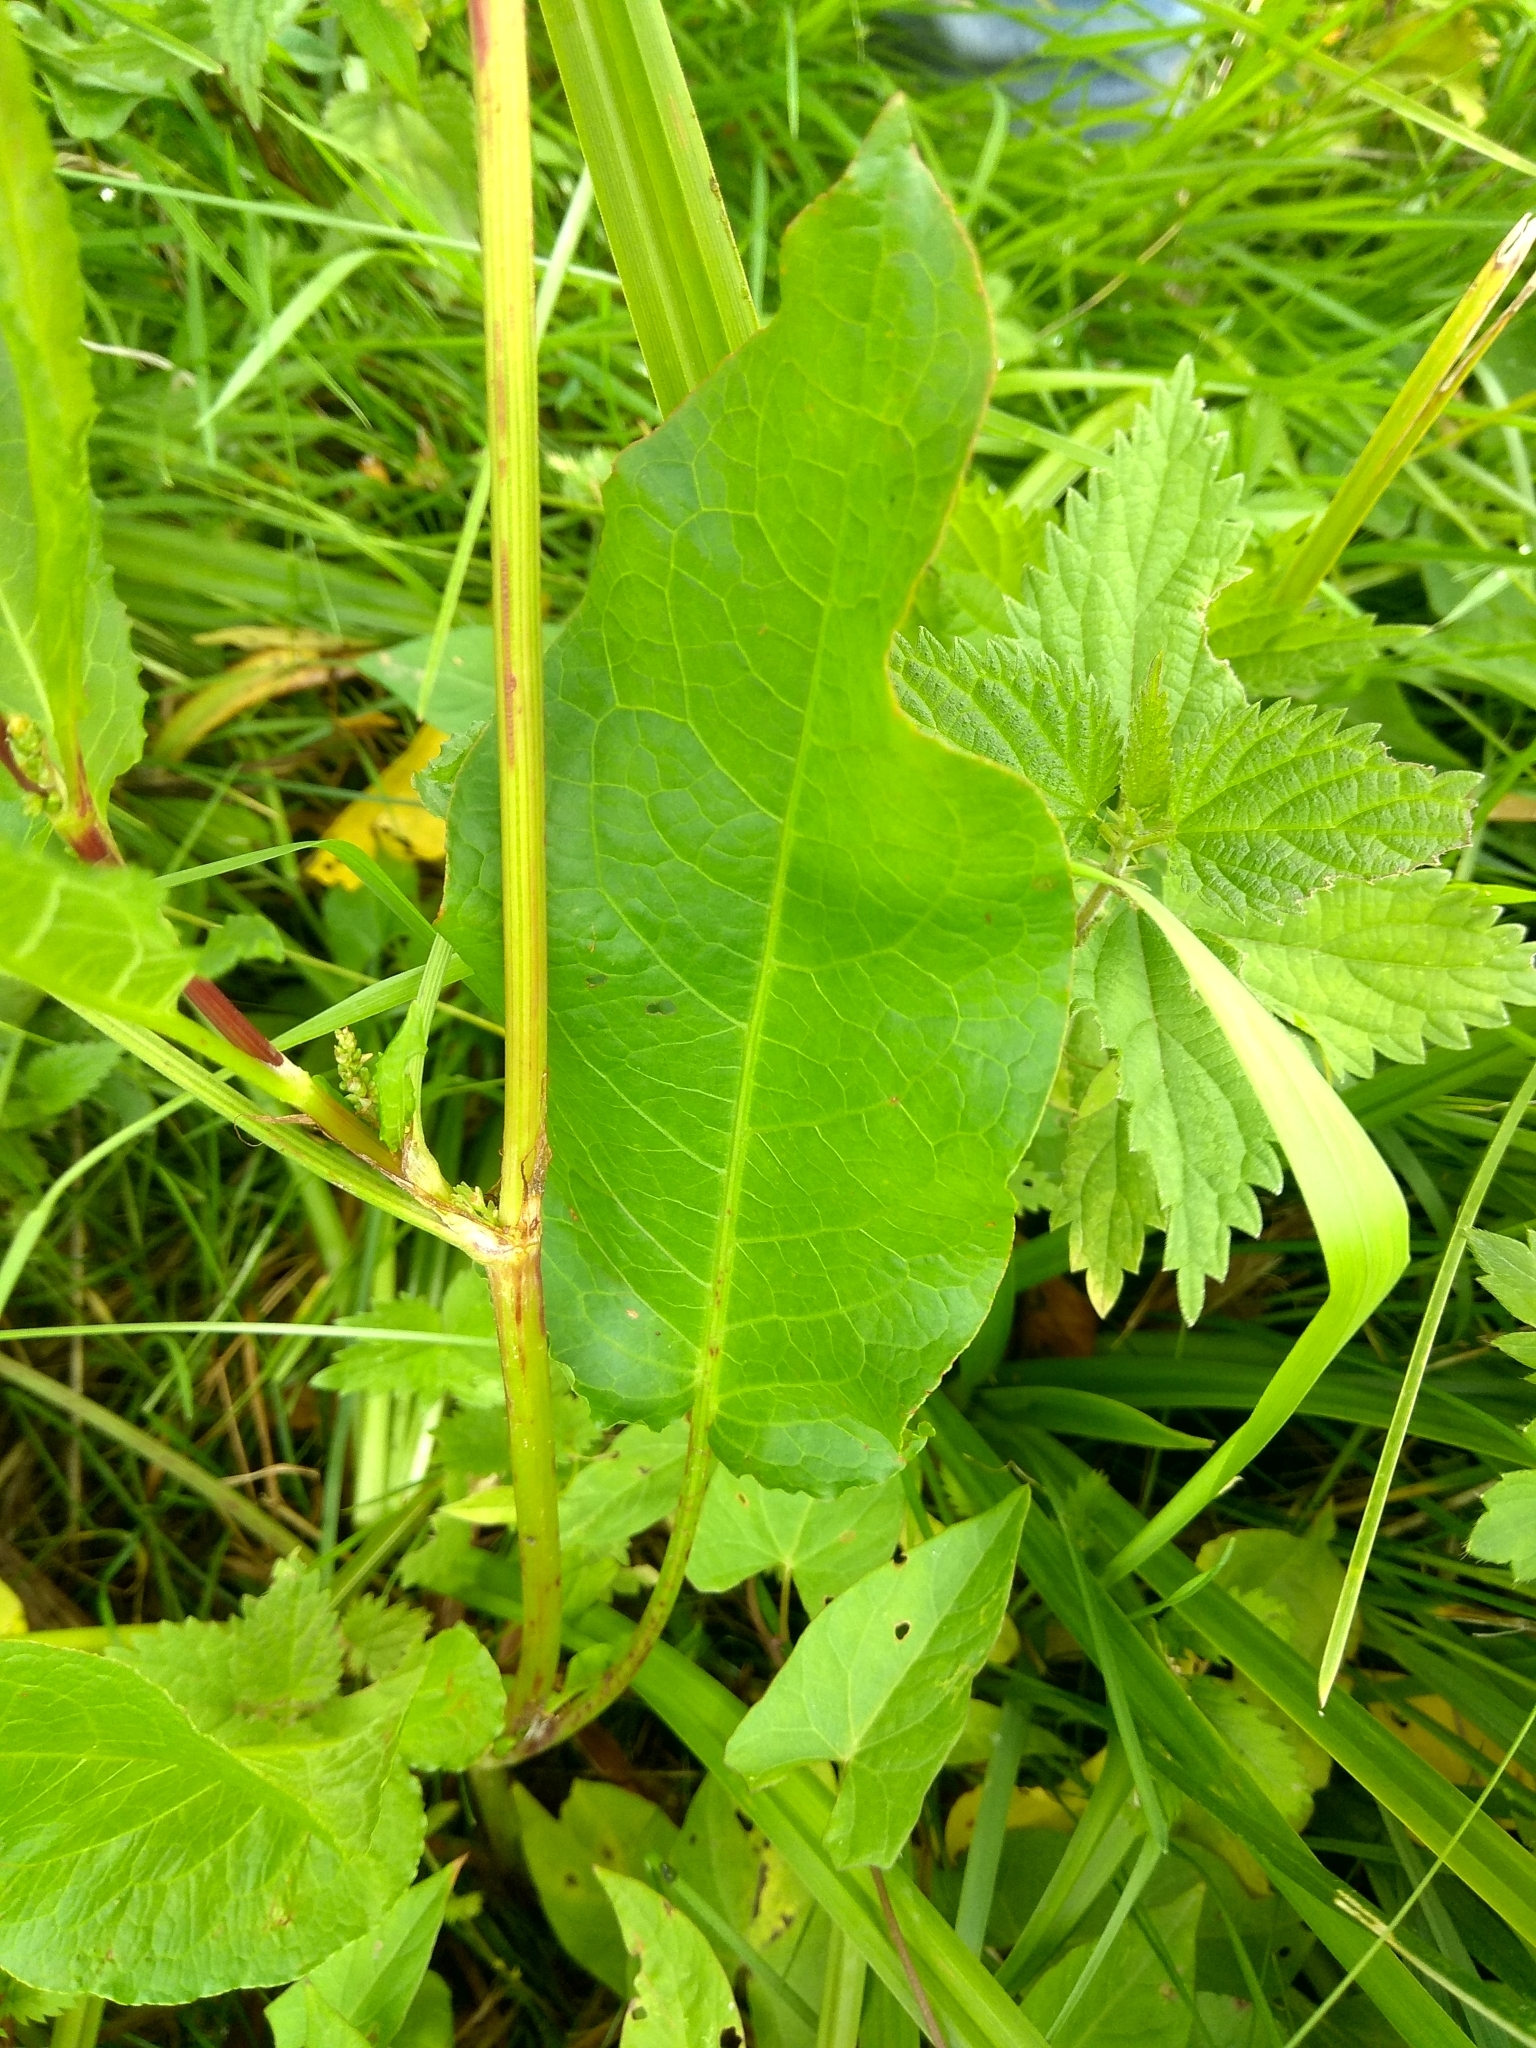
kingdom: Plantae
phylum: Tracheophyta
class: Magnoliopsida
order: Caryophyllales
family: Polygonaceae
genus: Rumex
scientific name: Rumex obtusifolius
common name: Bitter dock
